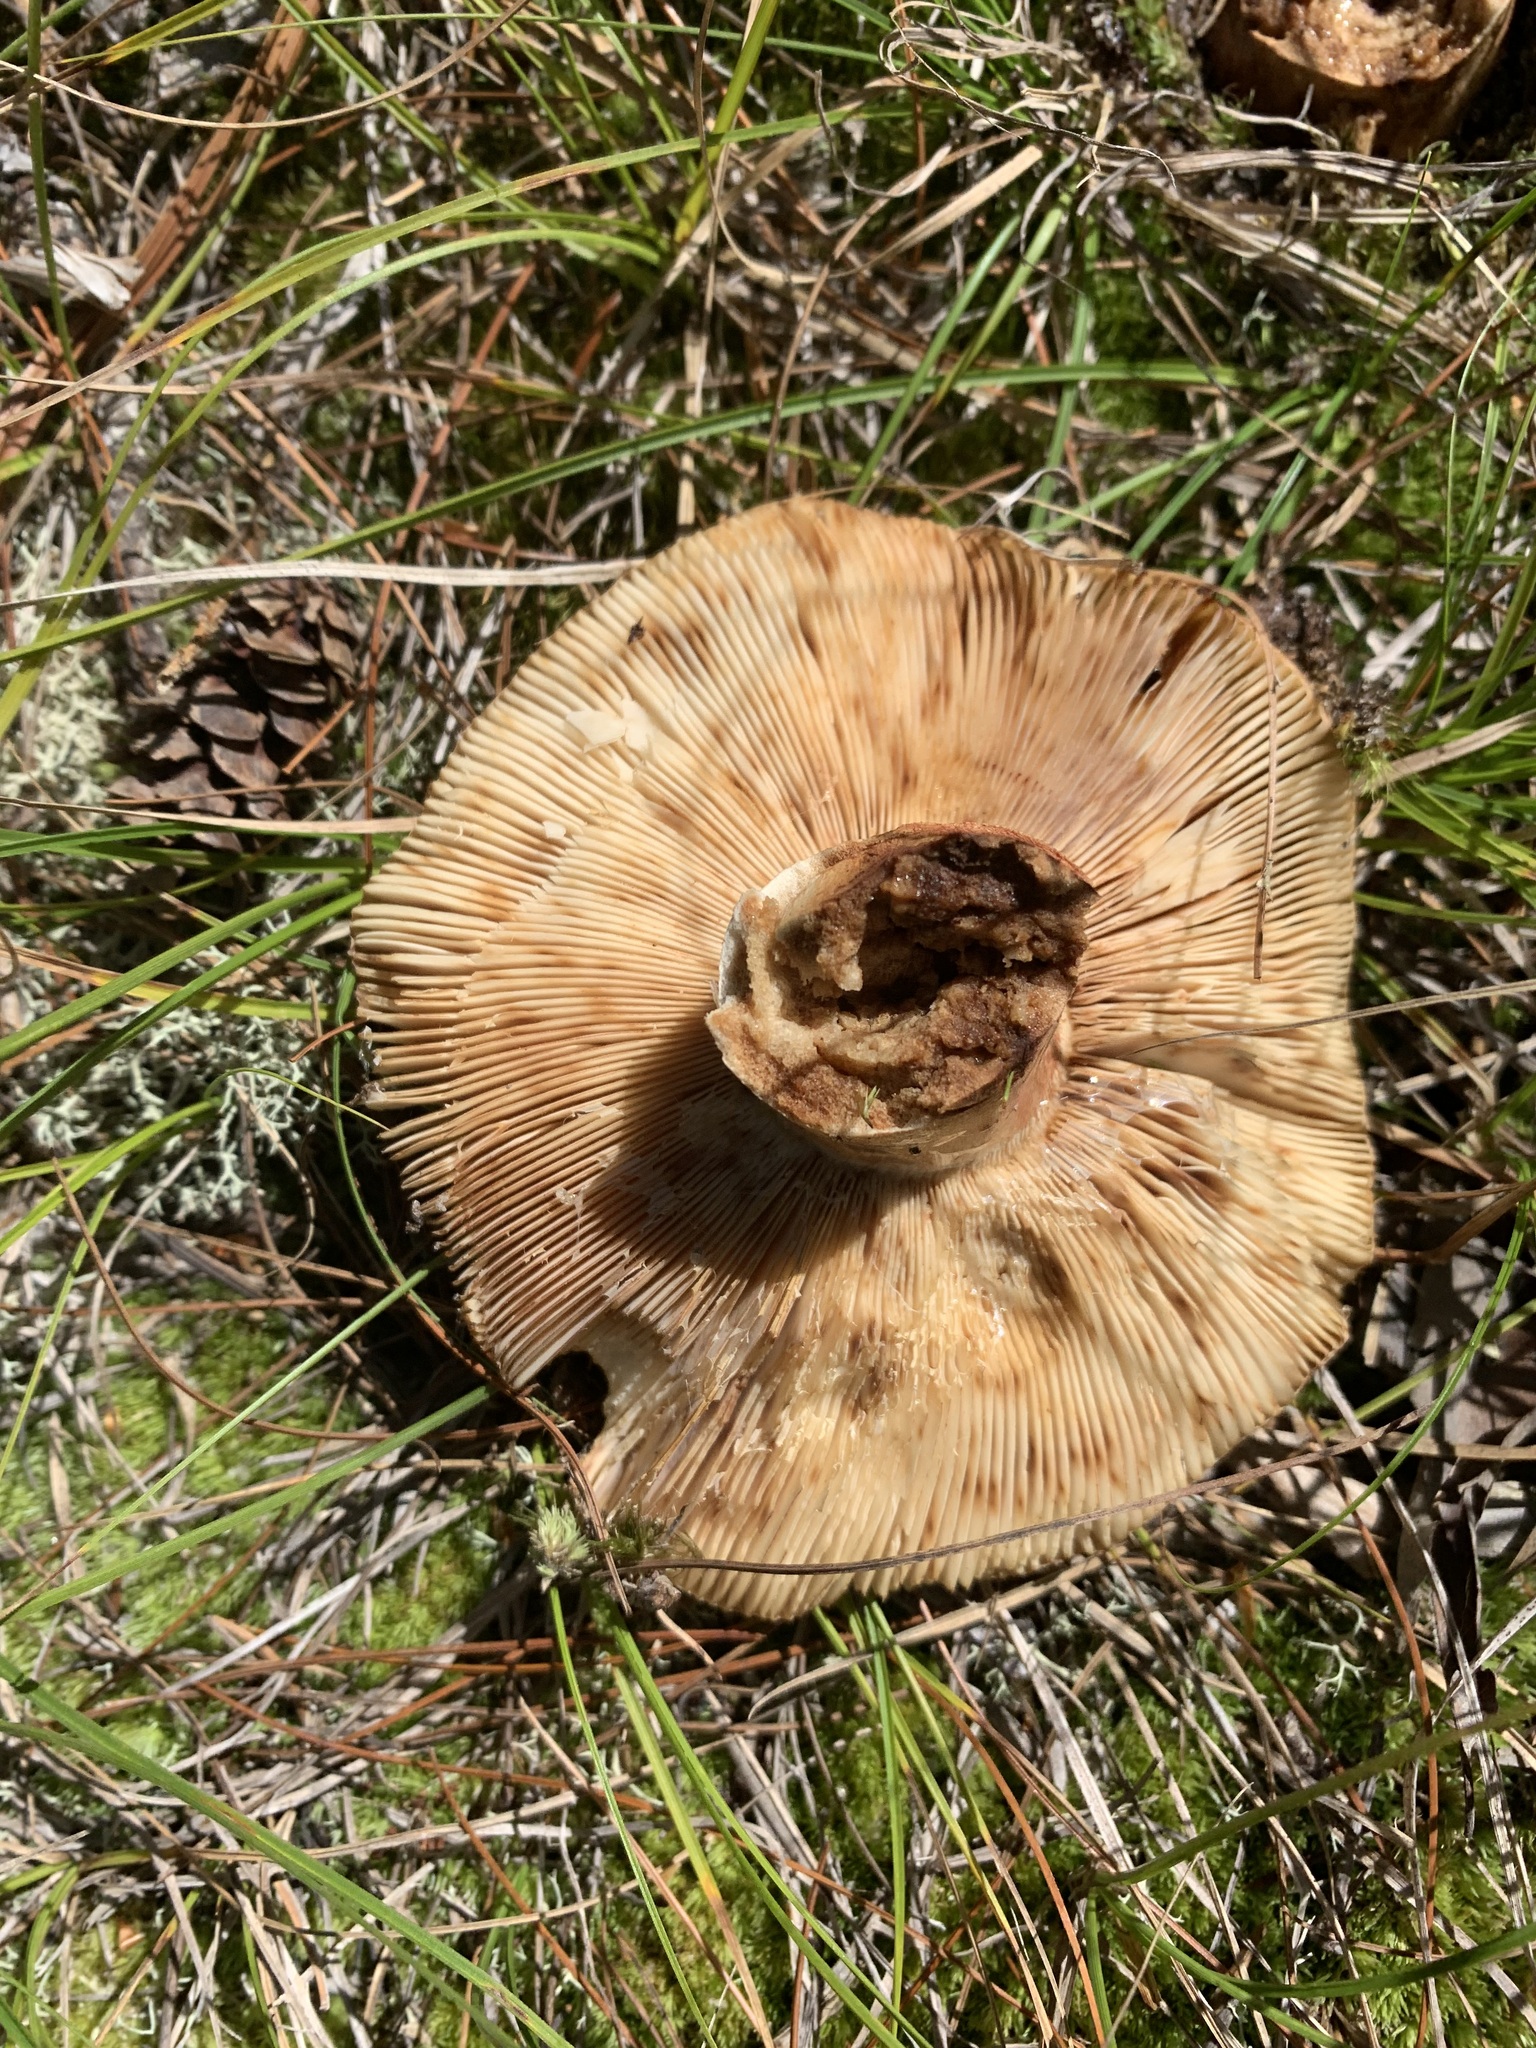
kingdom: Fungi
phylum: Basidiomycota
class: Agaricomycetes
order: Russulales
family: Russulaceae
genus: Russula
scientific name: Russula mutabilis
